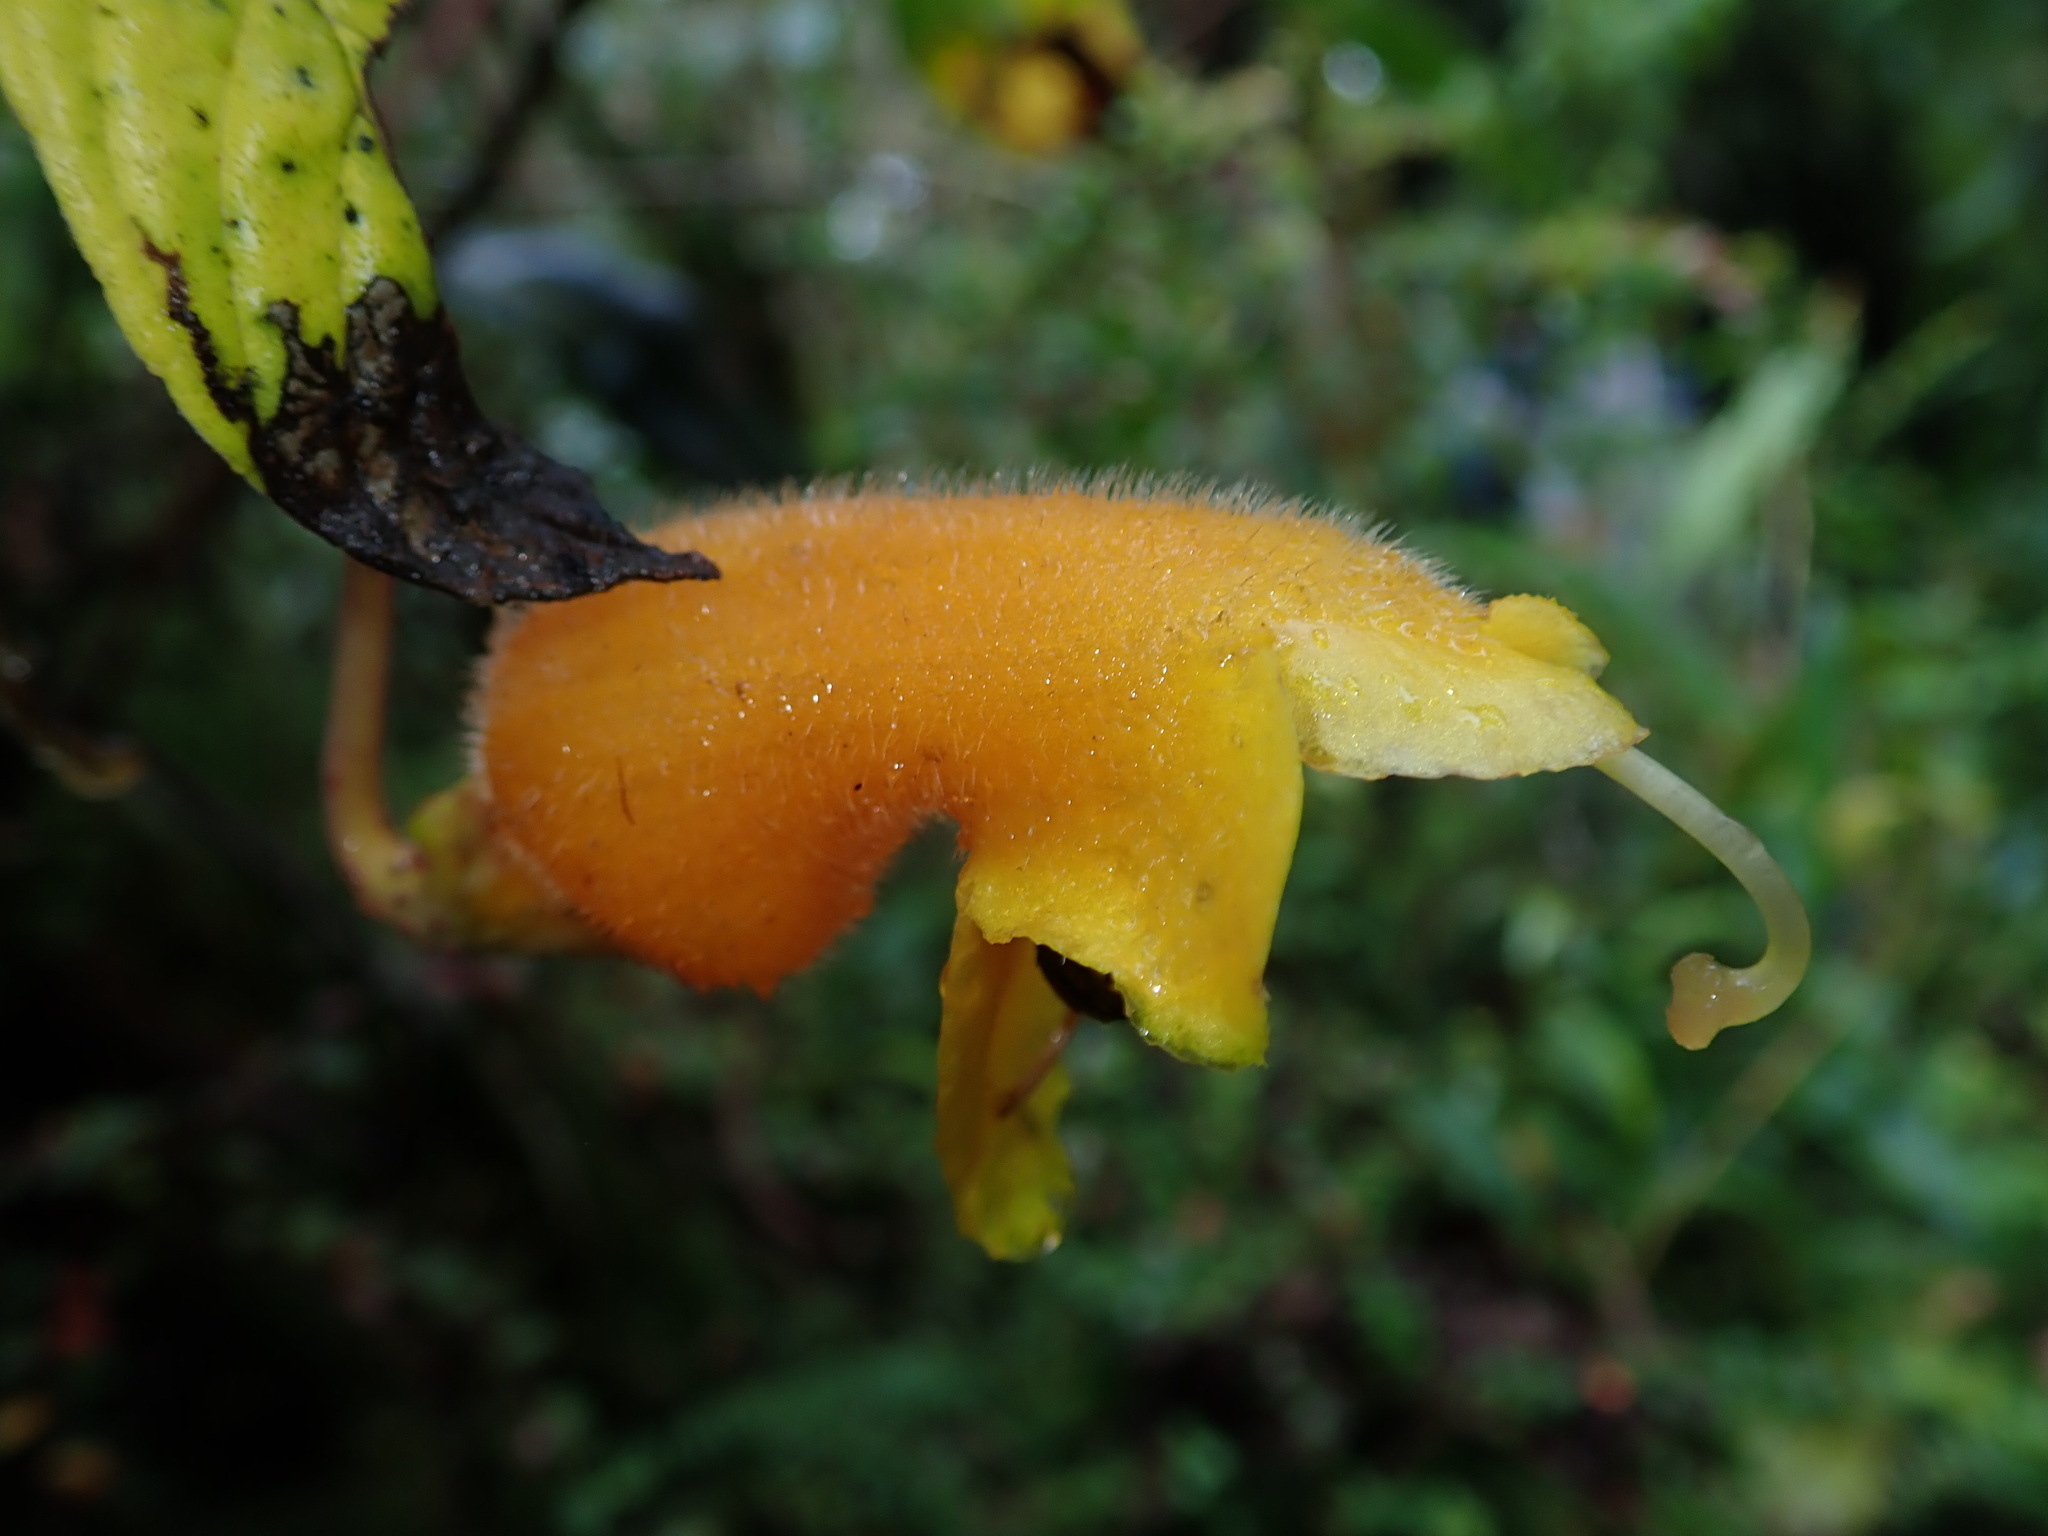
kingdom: Plantae
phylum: Tracheophyta
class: Magnoliopsida
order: Lamiales
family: Gesneriaceae
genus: Columnea
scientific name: Columnea strigosa
